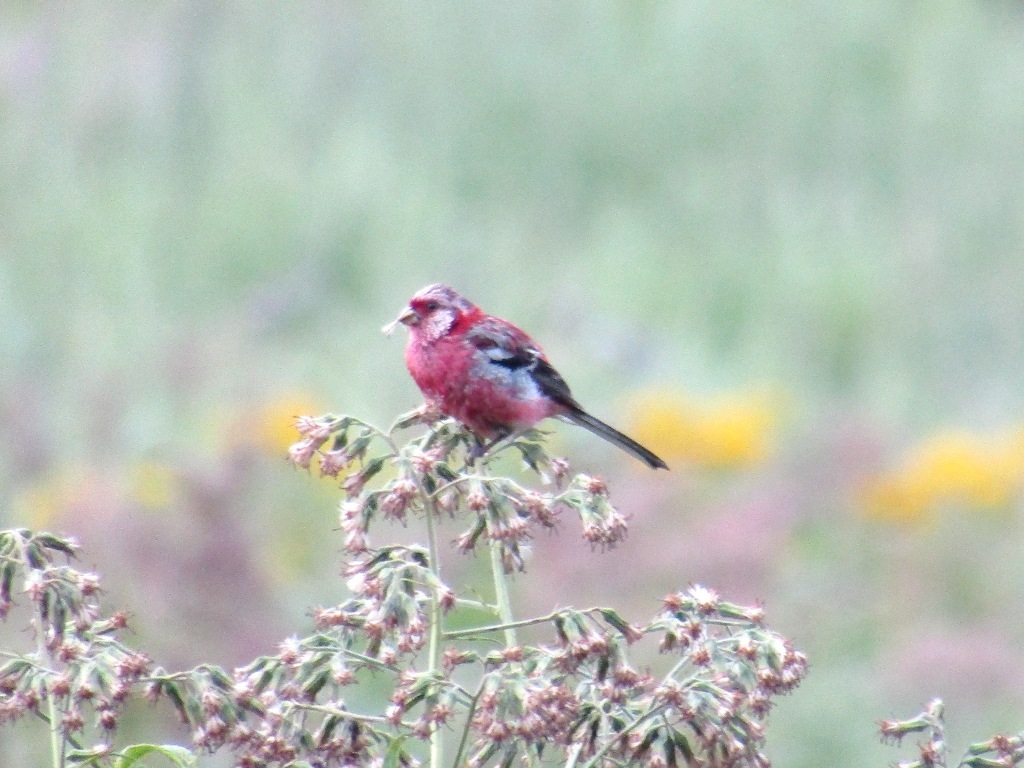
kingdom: Animalia
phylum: Chordata
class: Aves
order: Passeriformes
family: Fringillidae
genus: Carpodacus
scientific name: Carpodacus sibiricus
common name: Long-tailed rosefinch
